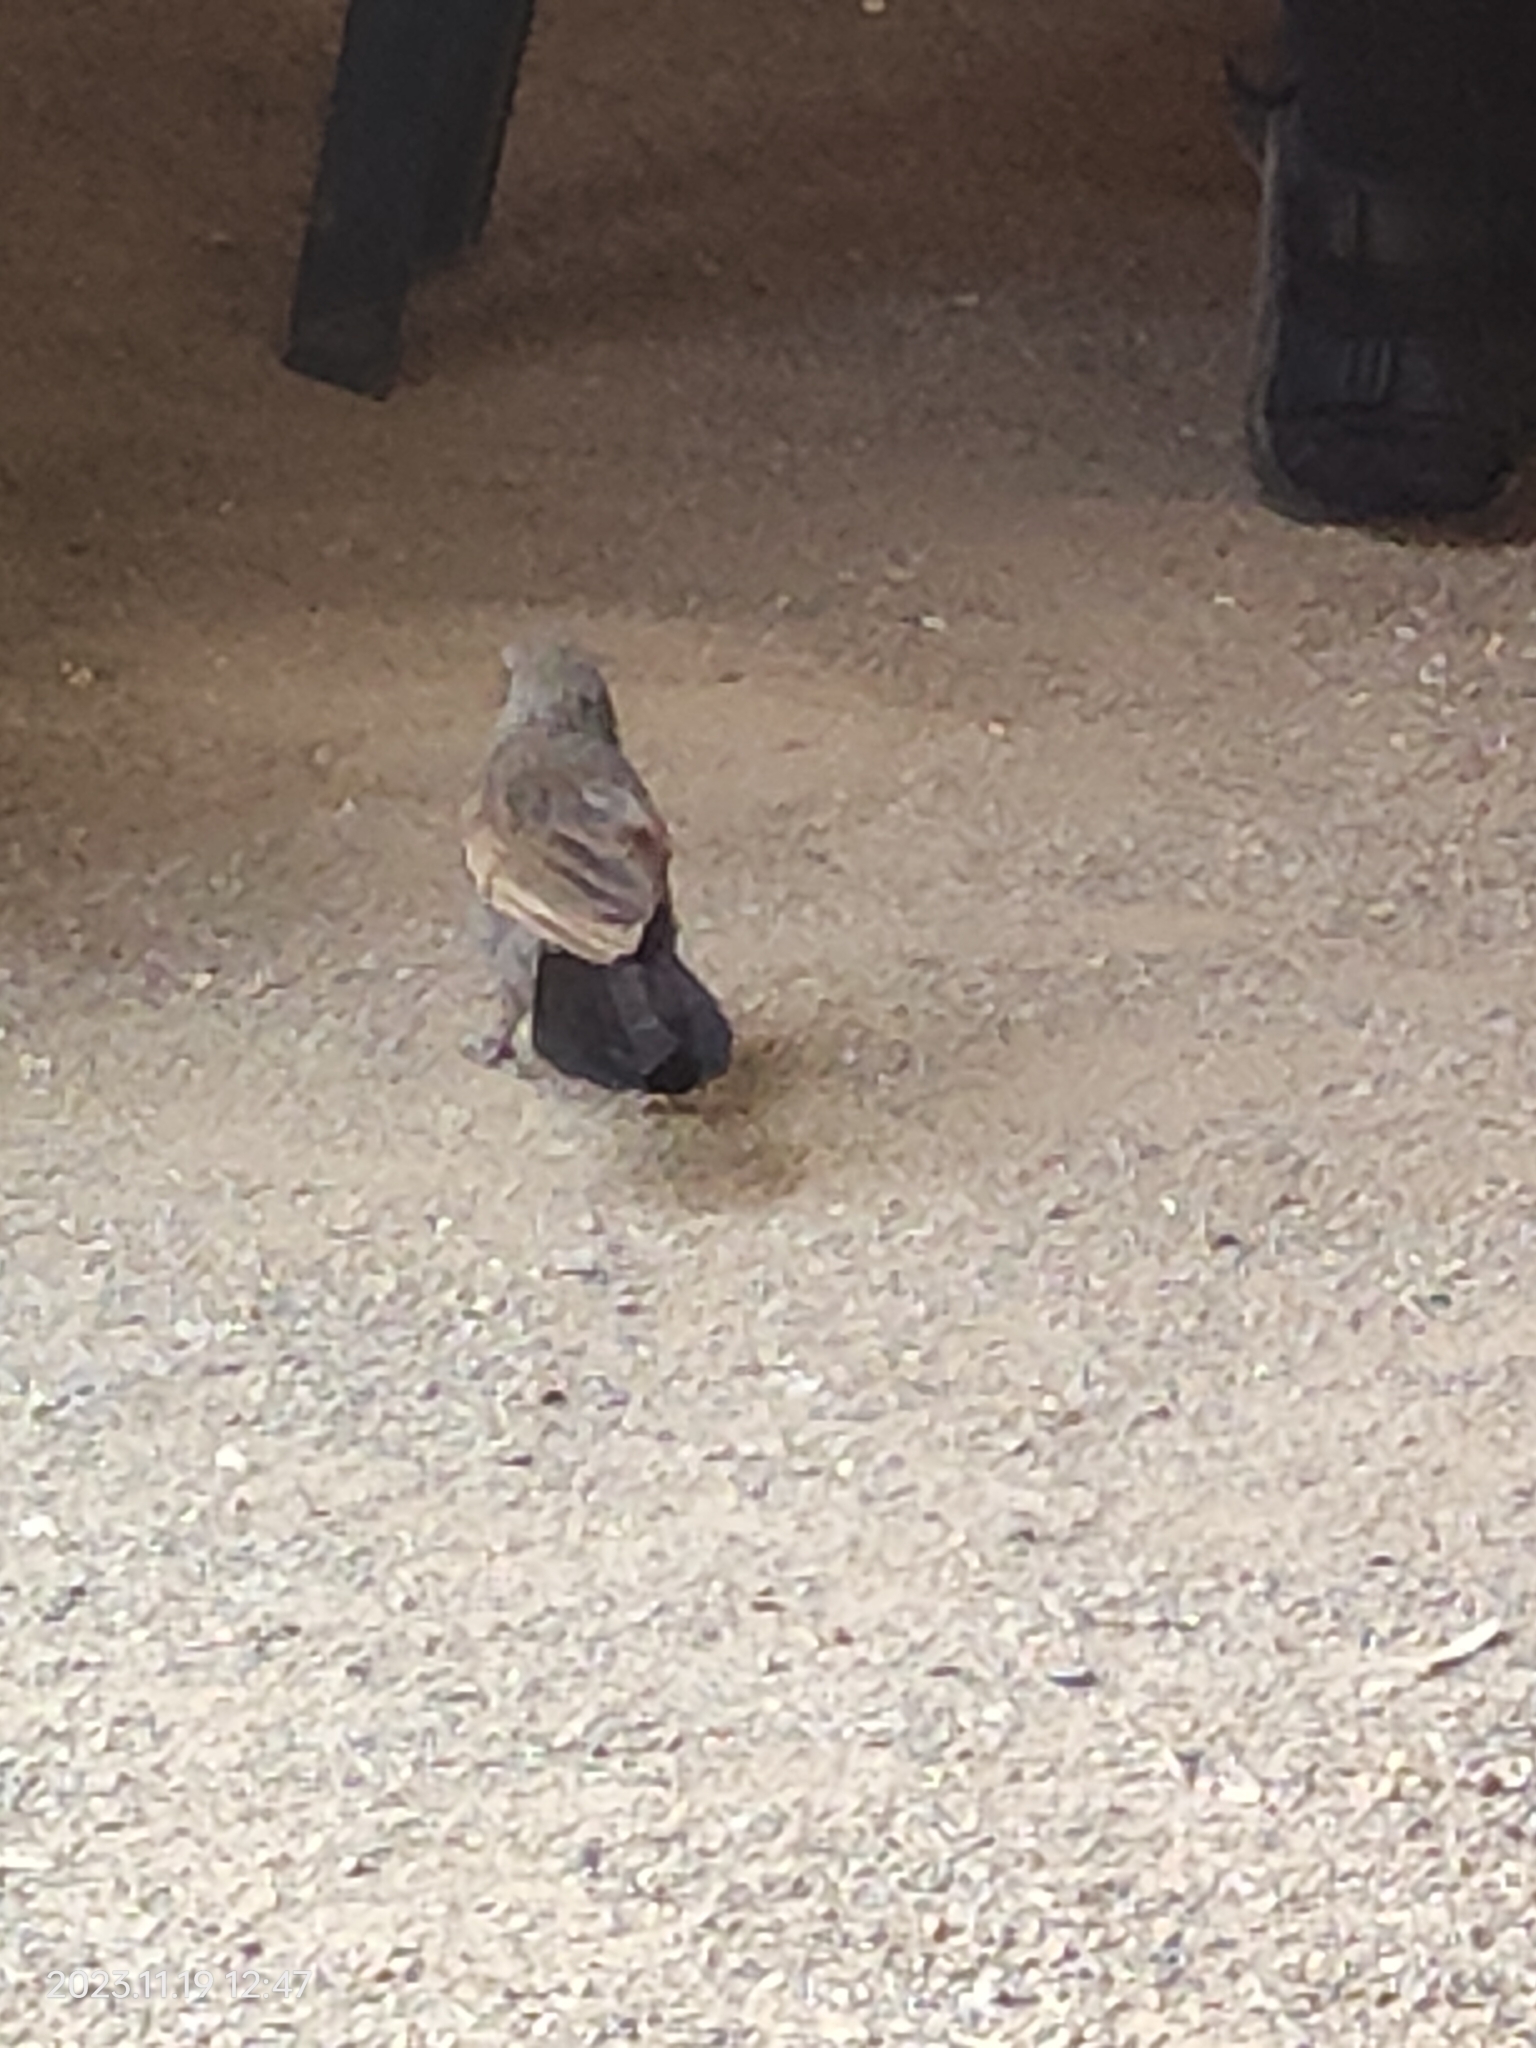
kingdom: Animalia
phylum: Chordata
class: Aves
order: Passeriformes
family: Corcoracidae
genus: Struthidea
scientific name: Struthidea cinerea
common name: Apostlebird
